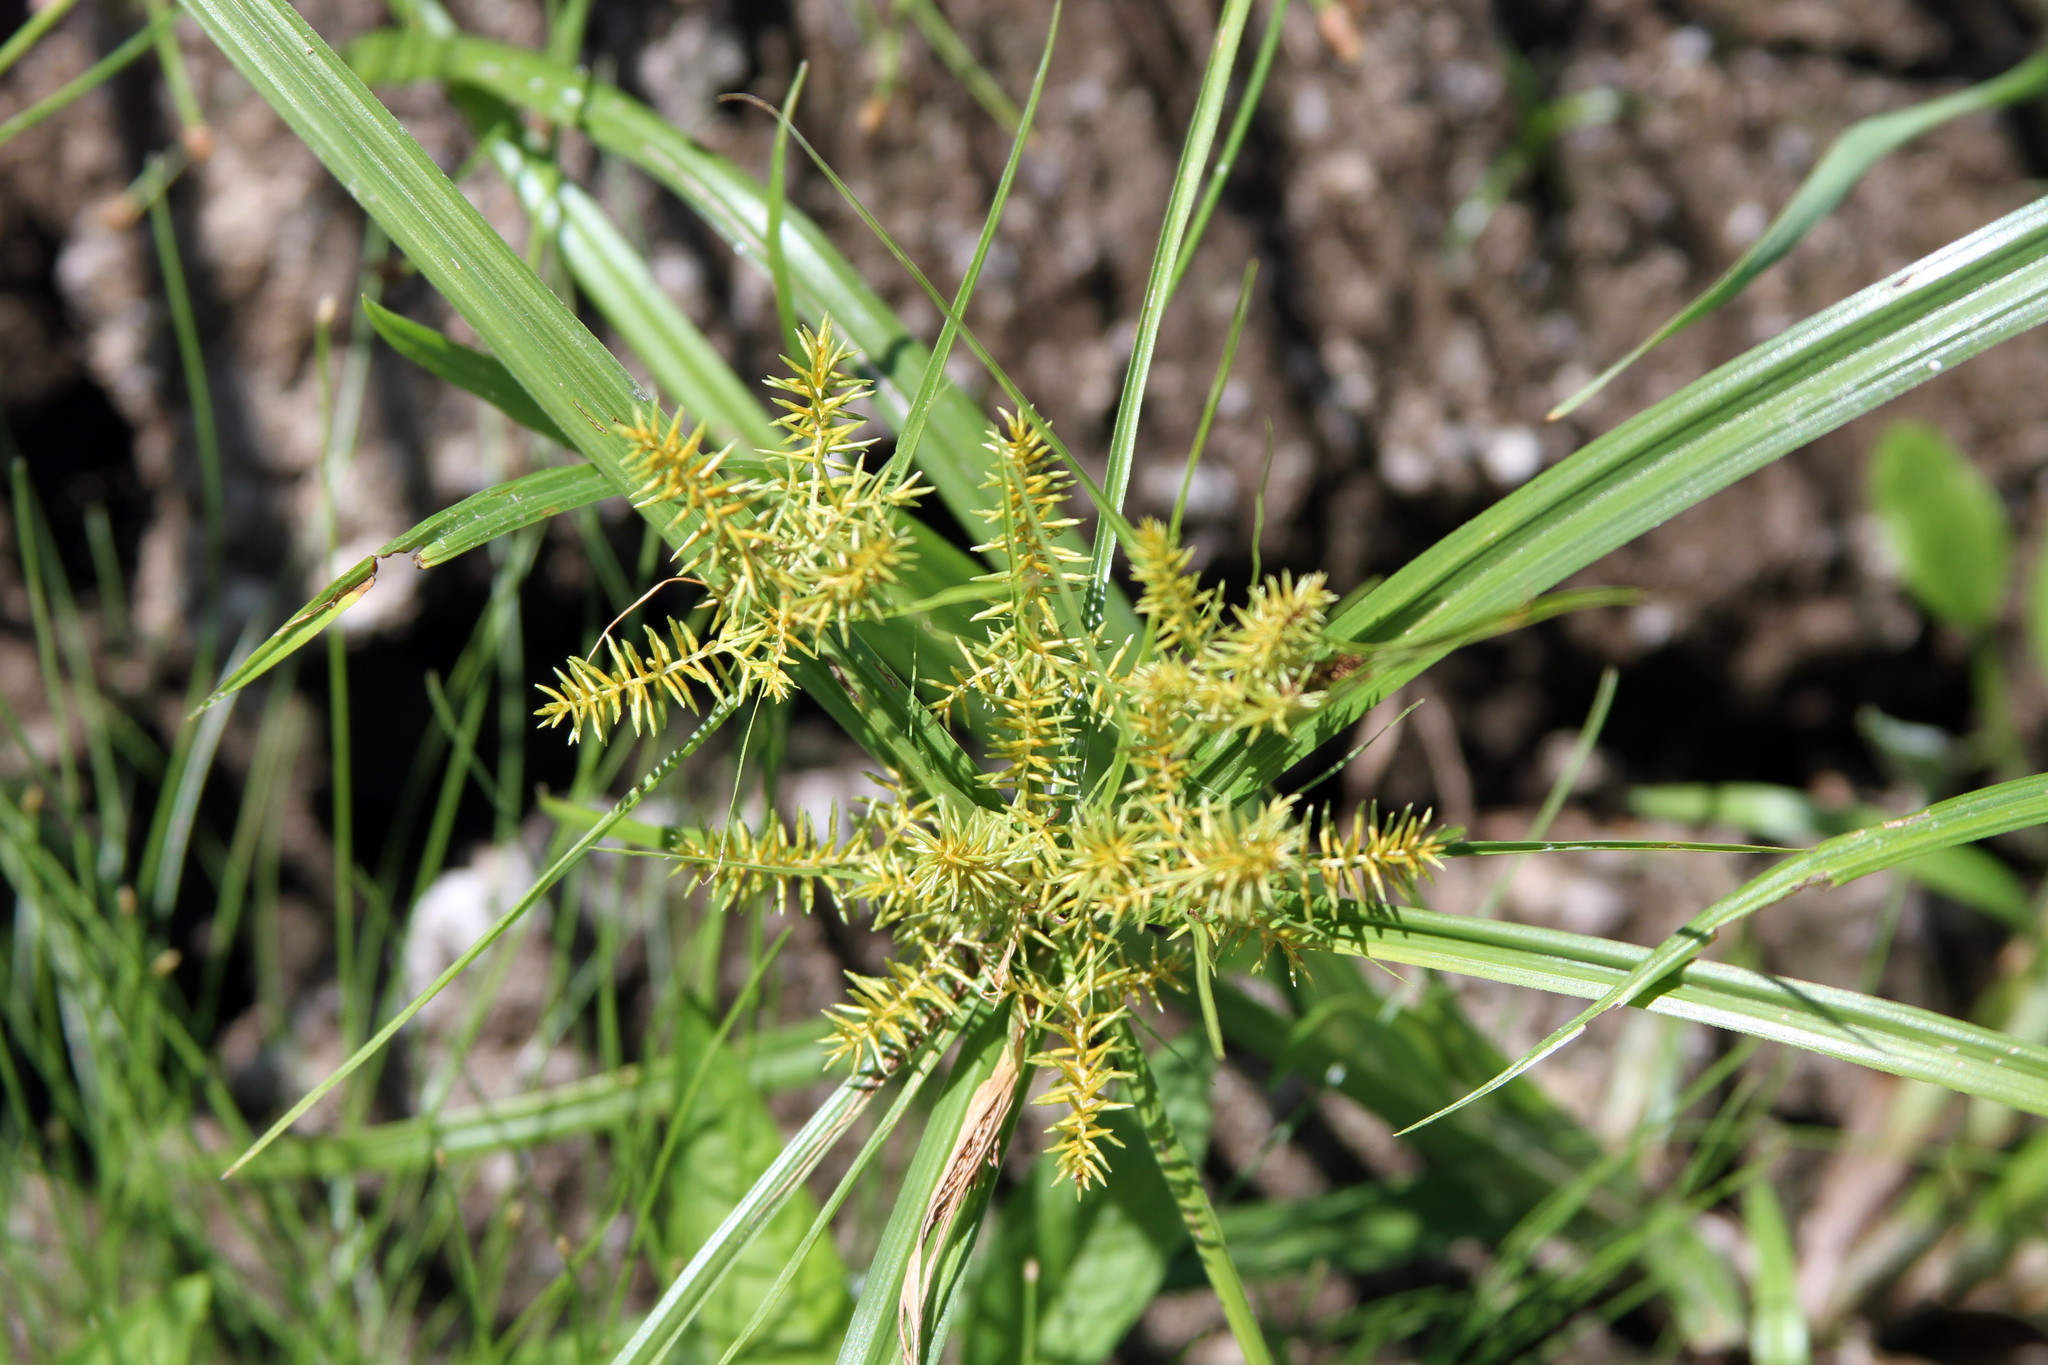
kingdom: Plantae
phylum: Tracheophyta
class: Liliopsida
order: Poales
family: Cyperaceae
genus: Cyperus
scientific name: Cyperus odoratus
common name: Fragrant flatsedge
